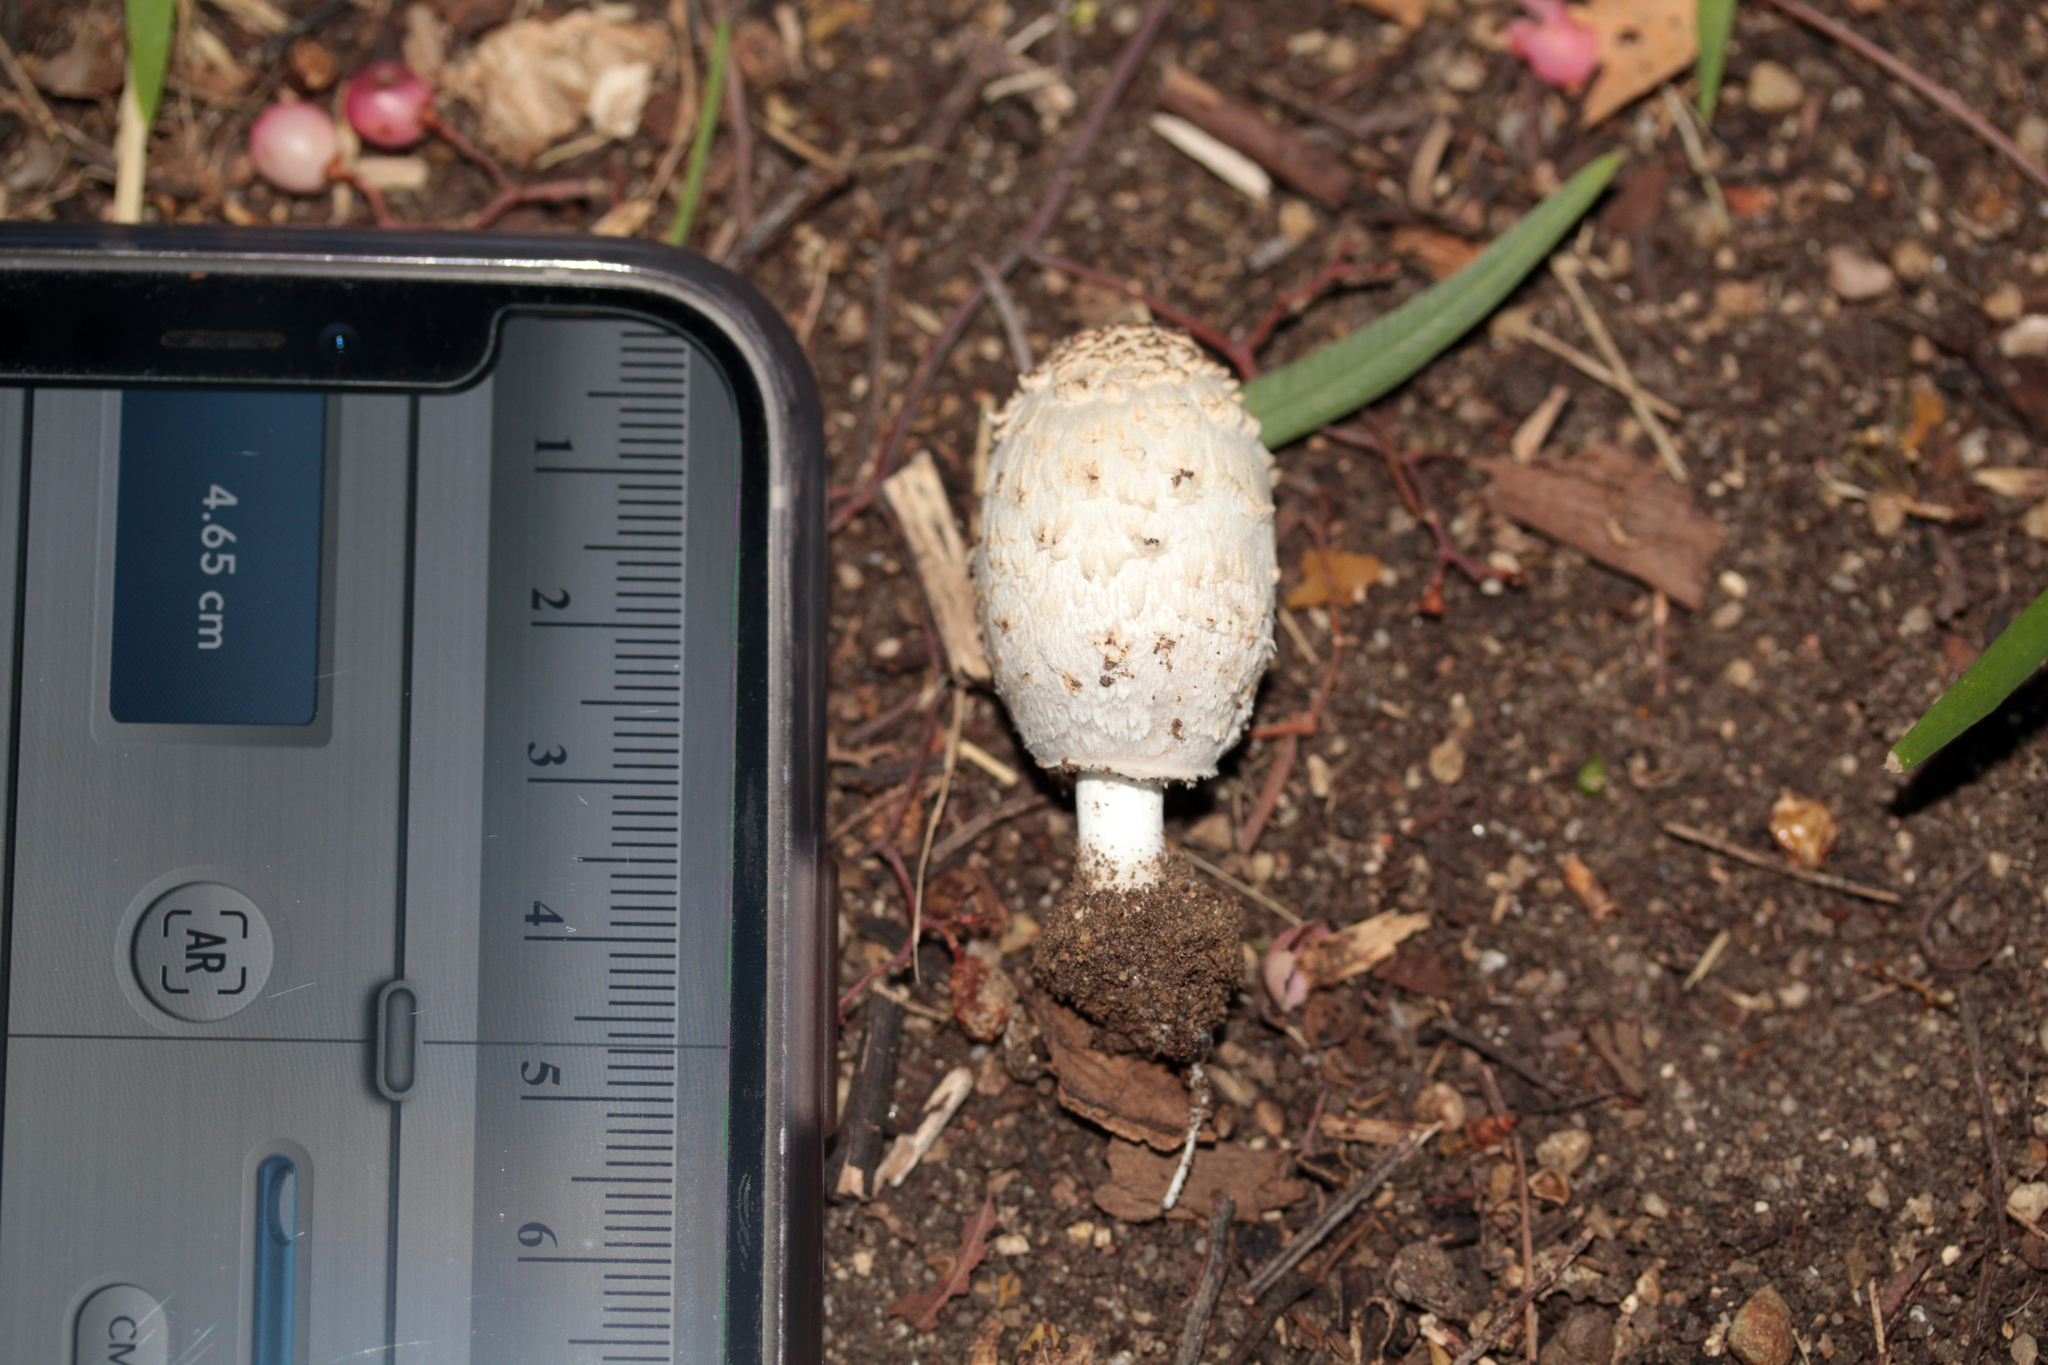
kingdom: Fungi
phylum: Basidiomycota
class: Agaricomycetes
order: Agaricales
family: Agaricaceae
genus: Coprinus
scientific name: Coprinus comatus
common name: Lawyer's wig
